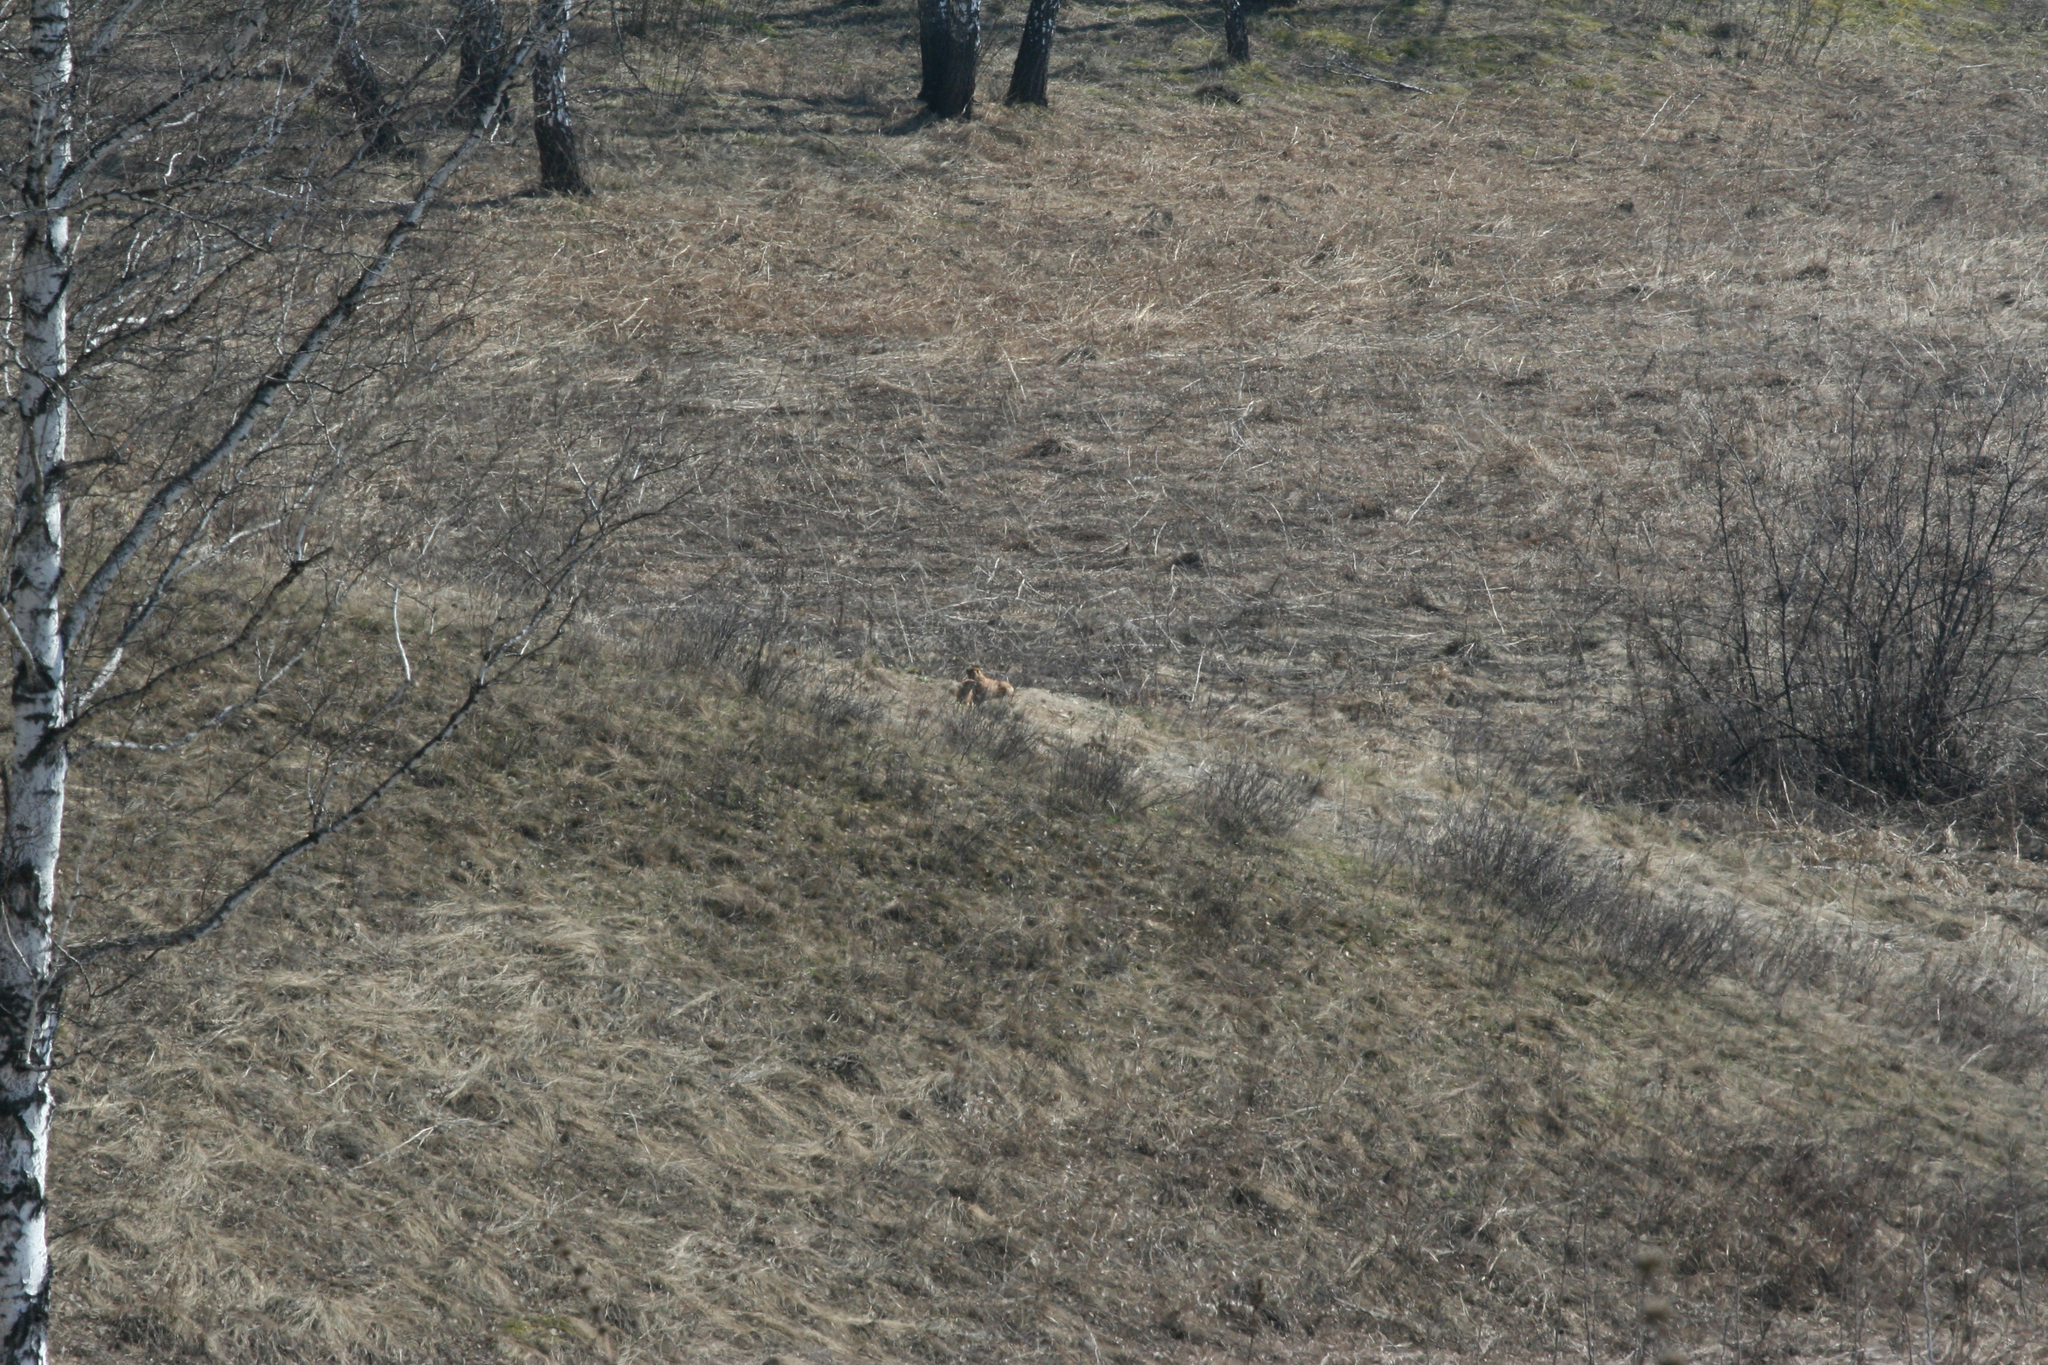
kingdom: Animalia
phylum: Chordata
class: Mammalia
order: Rodentia
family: Sciuridae
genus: Marmota
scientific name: Marmota kastschenkoi
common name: Forest steppe marmot
